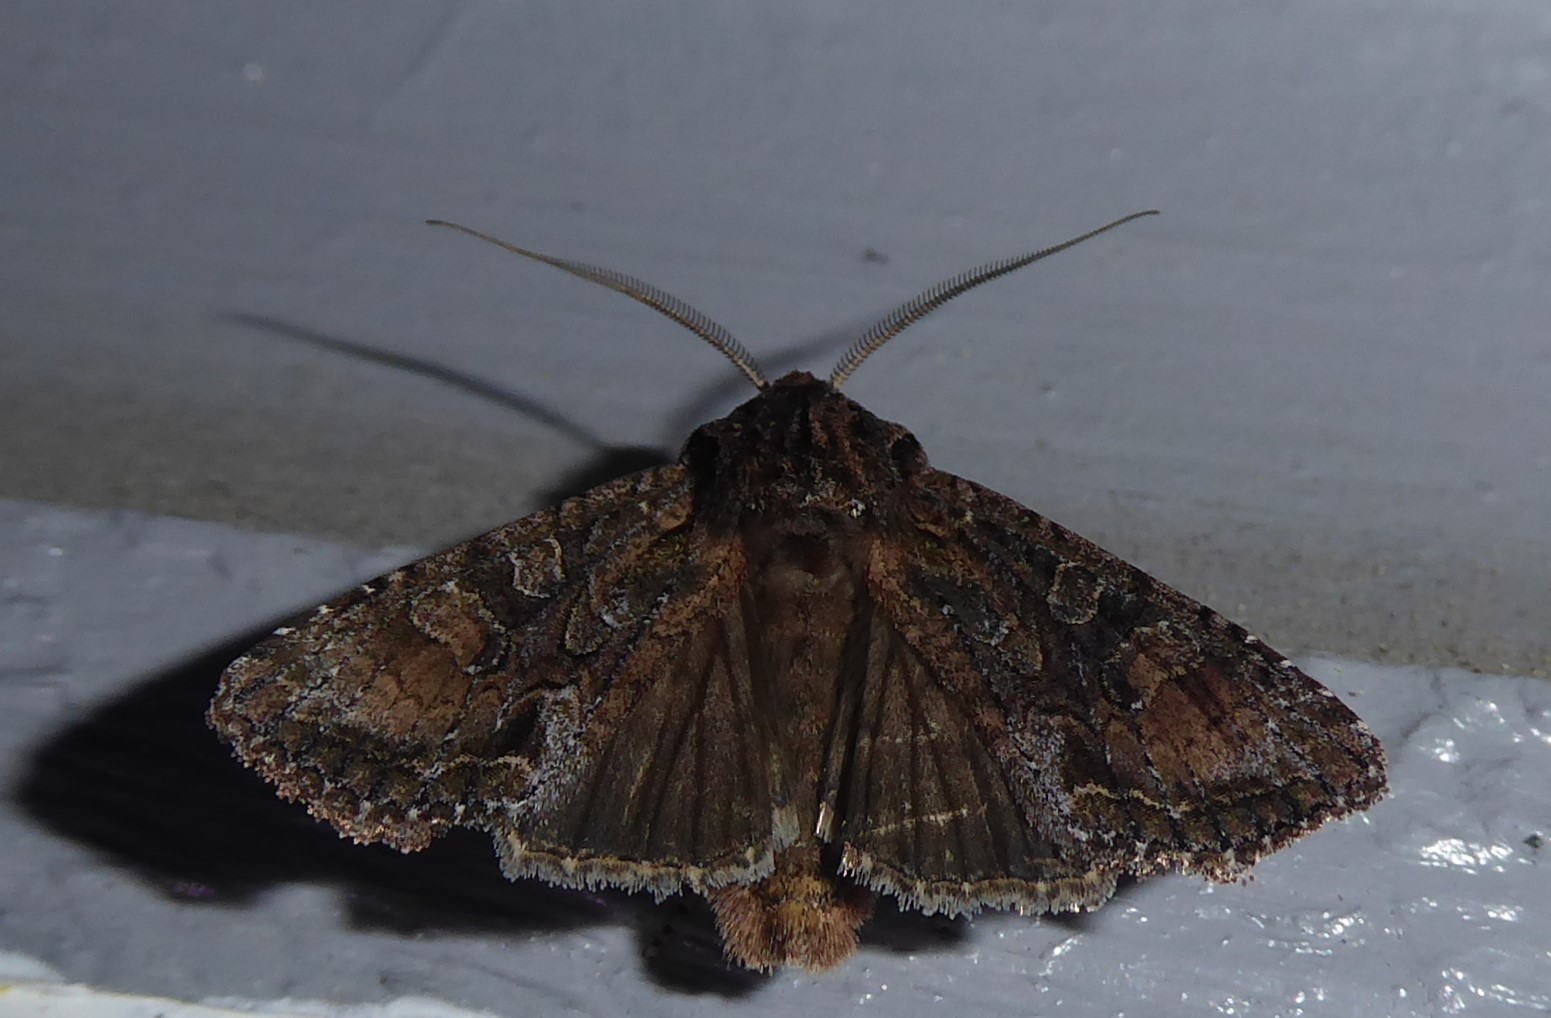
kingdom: Animalia
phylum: Arthropoda
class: Insecta
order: Lepidoptera
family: Noctuidae
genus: Ichneutica
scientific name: Ichneutica mutans
